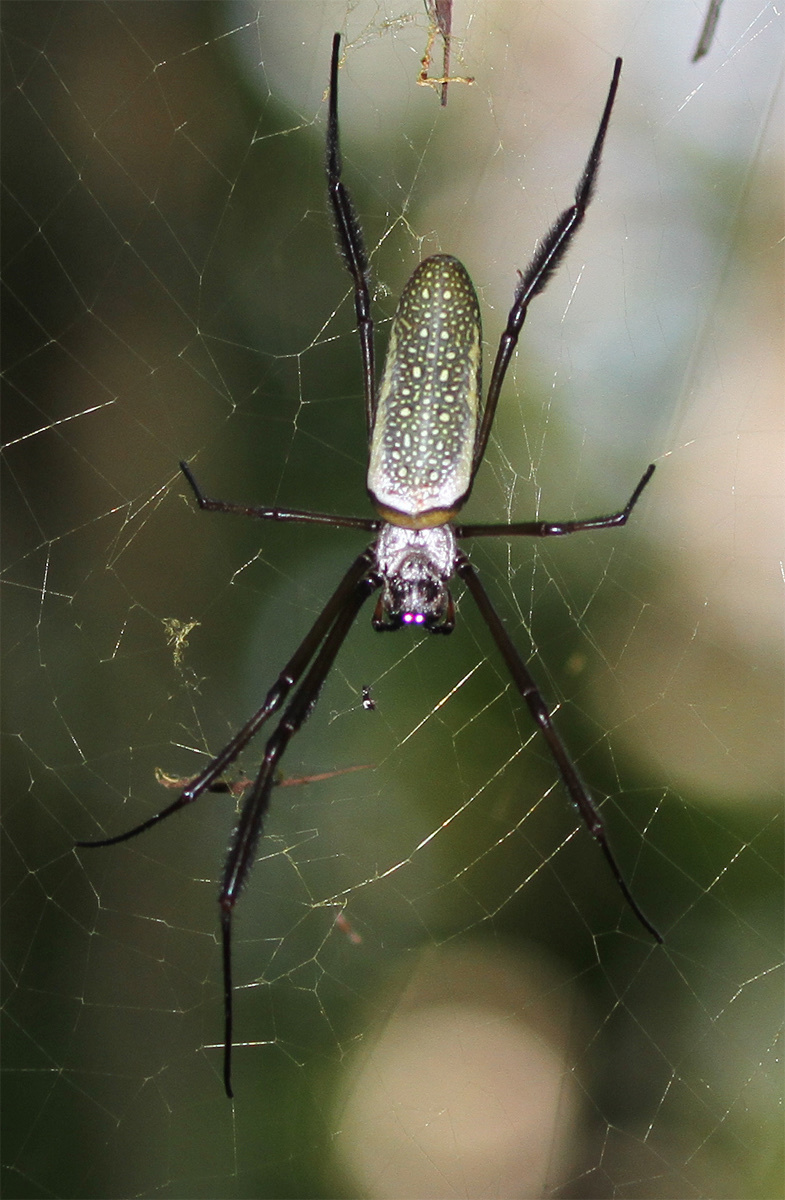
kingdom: Animalia
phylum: Arthropoda
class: Arachnida
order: Araneae
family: Araneidae
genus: Trichonephila
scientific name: Trichonephila clavipes
